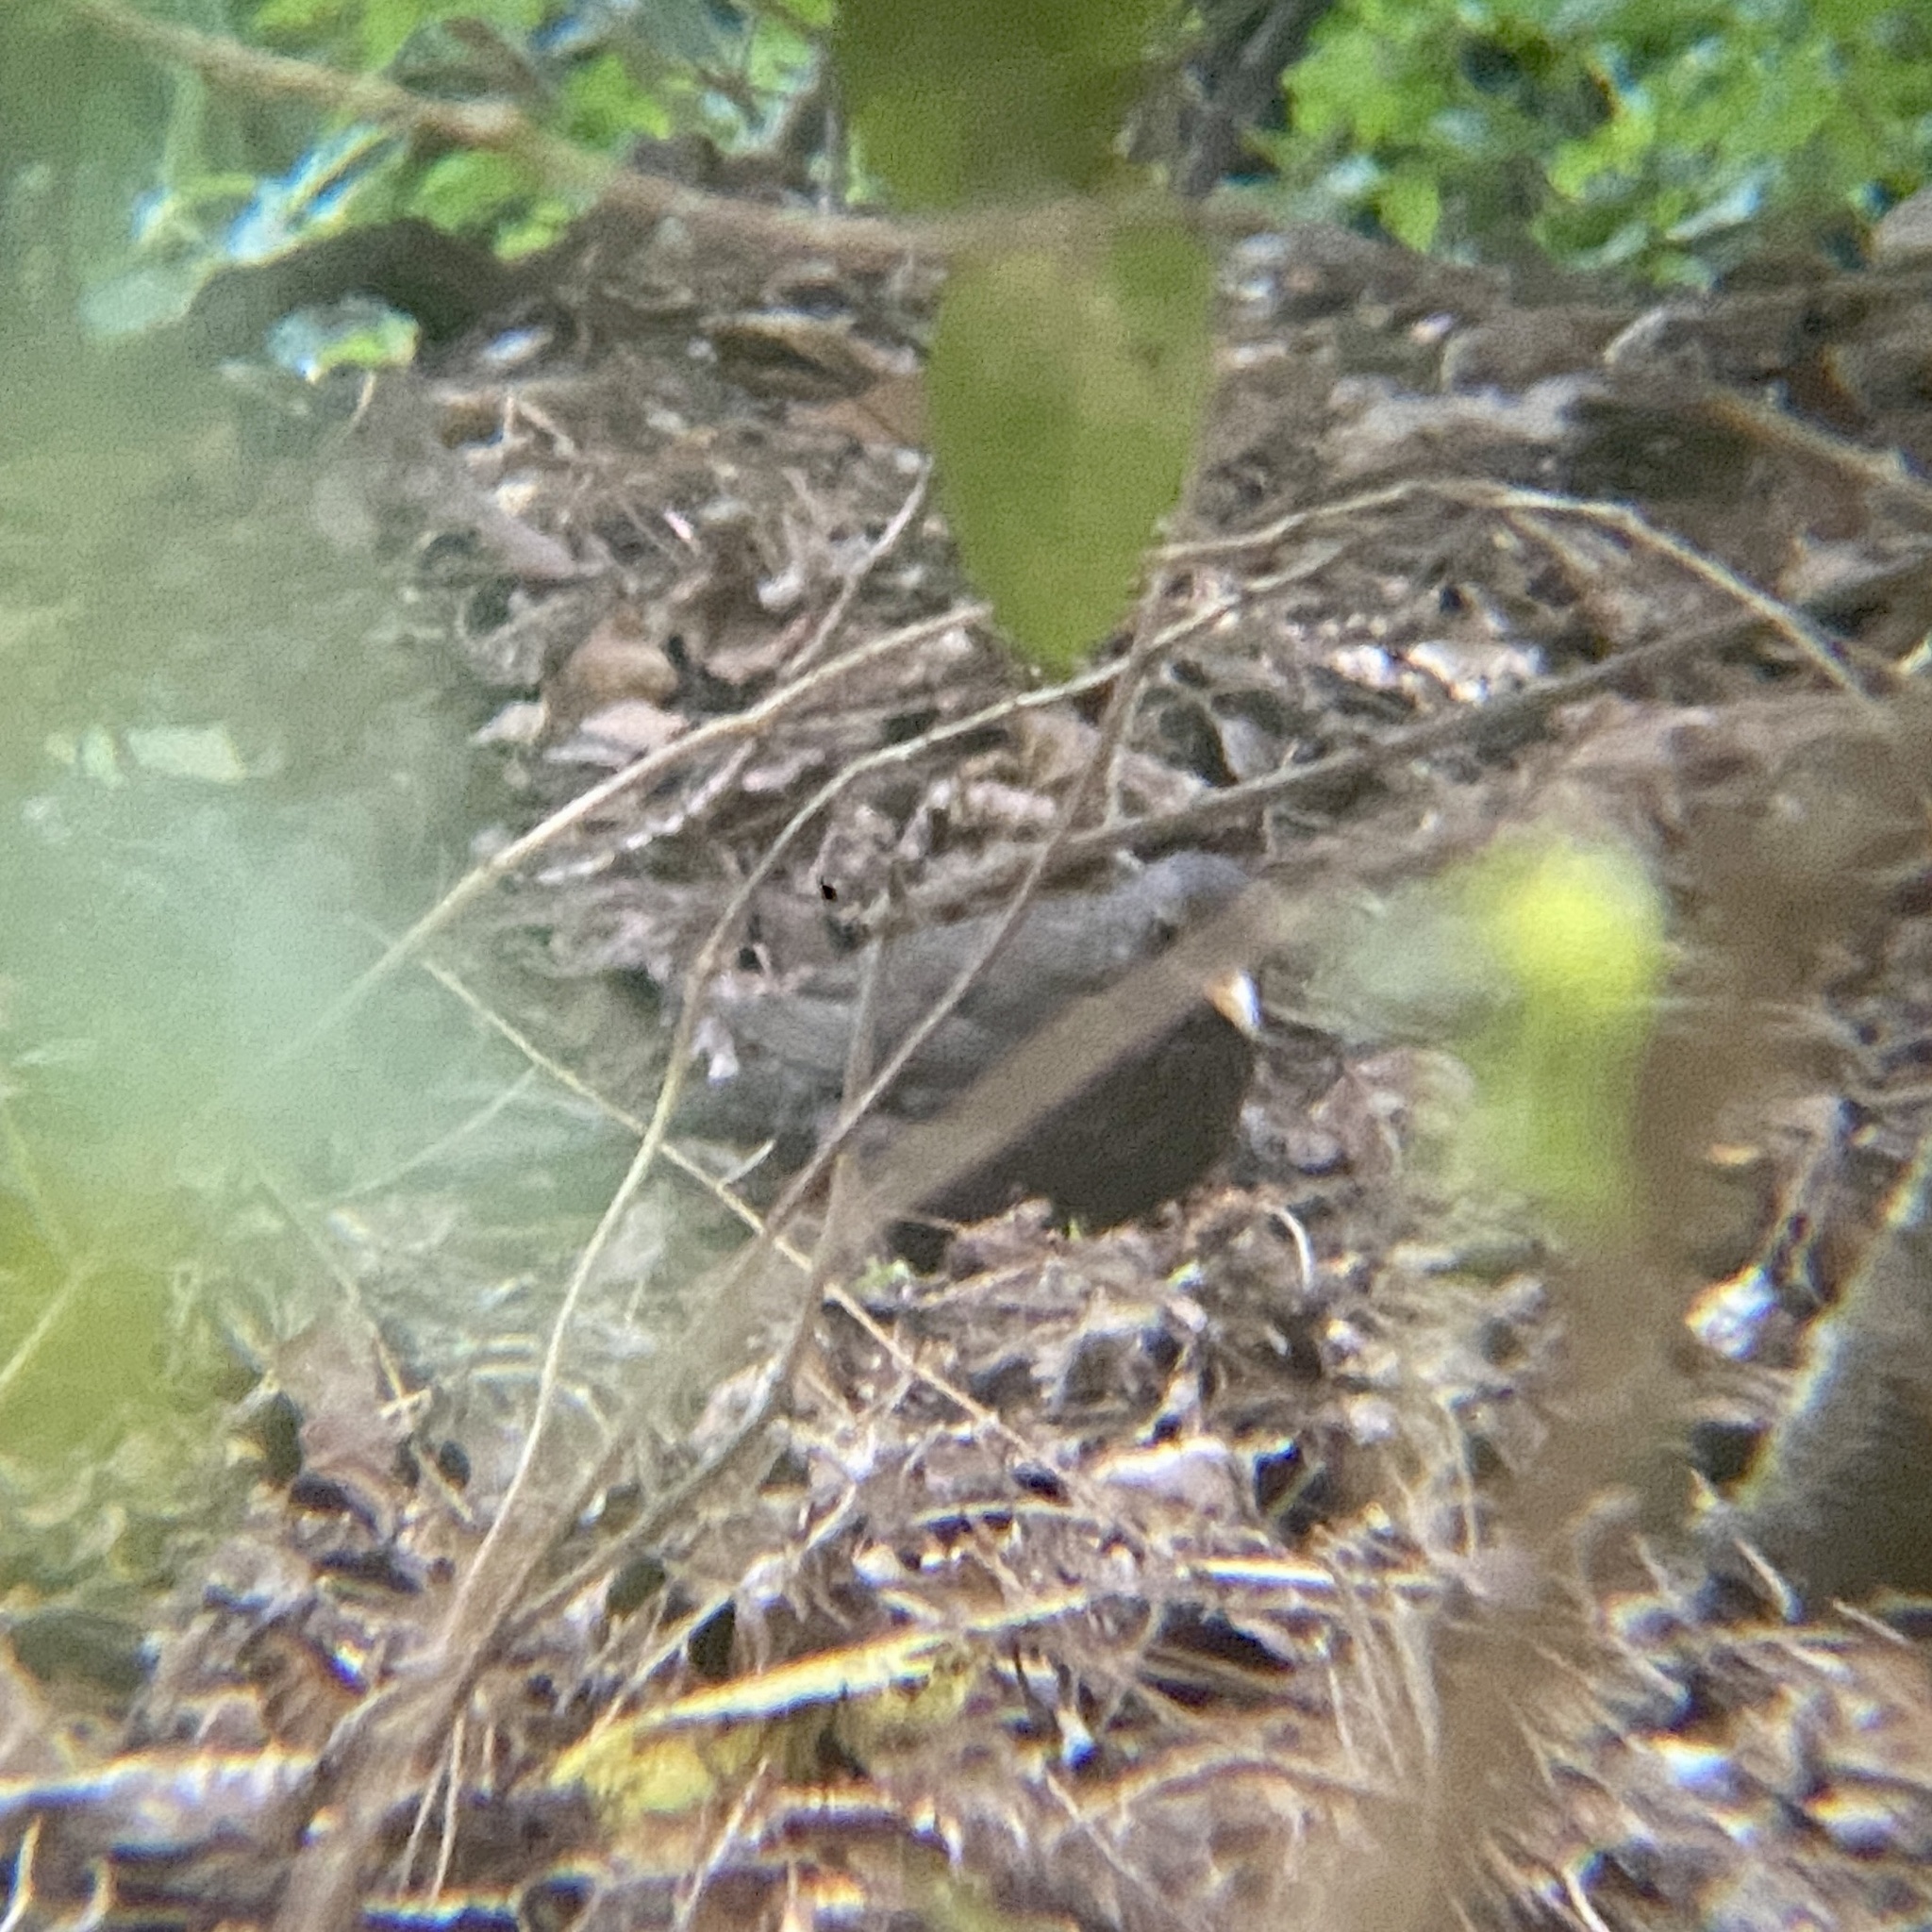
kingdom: Animalia
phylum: Chordata
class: Aves
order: Passeriformes
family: Turdidae
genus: Turdus
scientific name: Turdus merula
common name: Common blackbird
